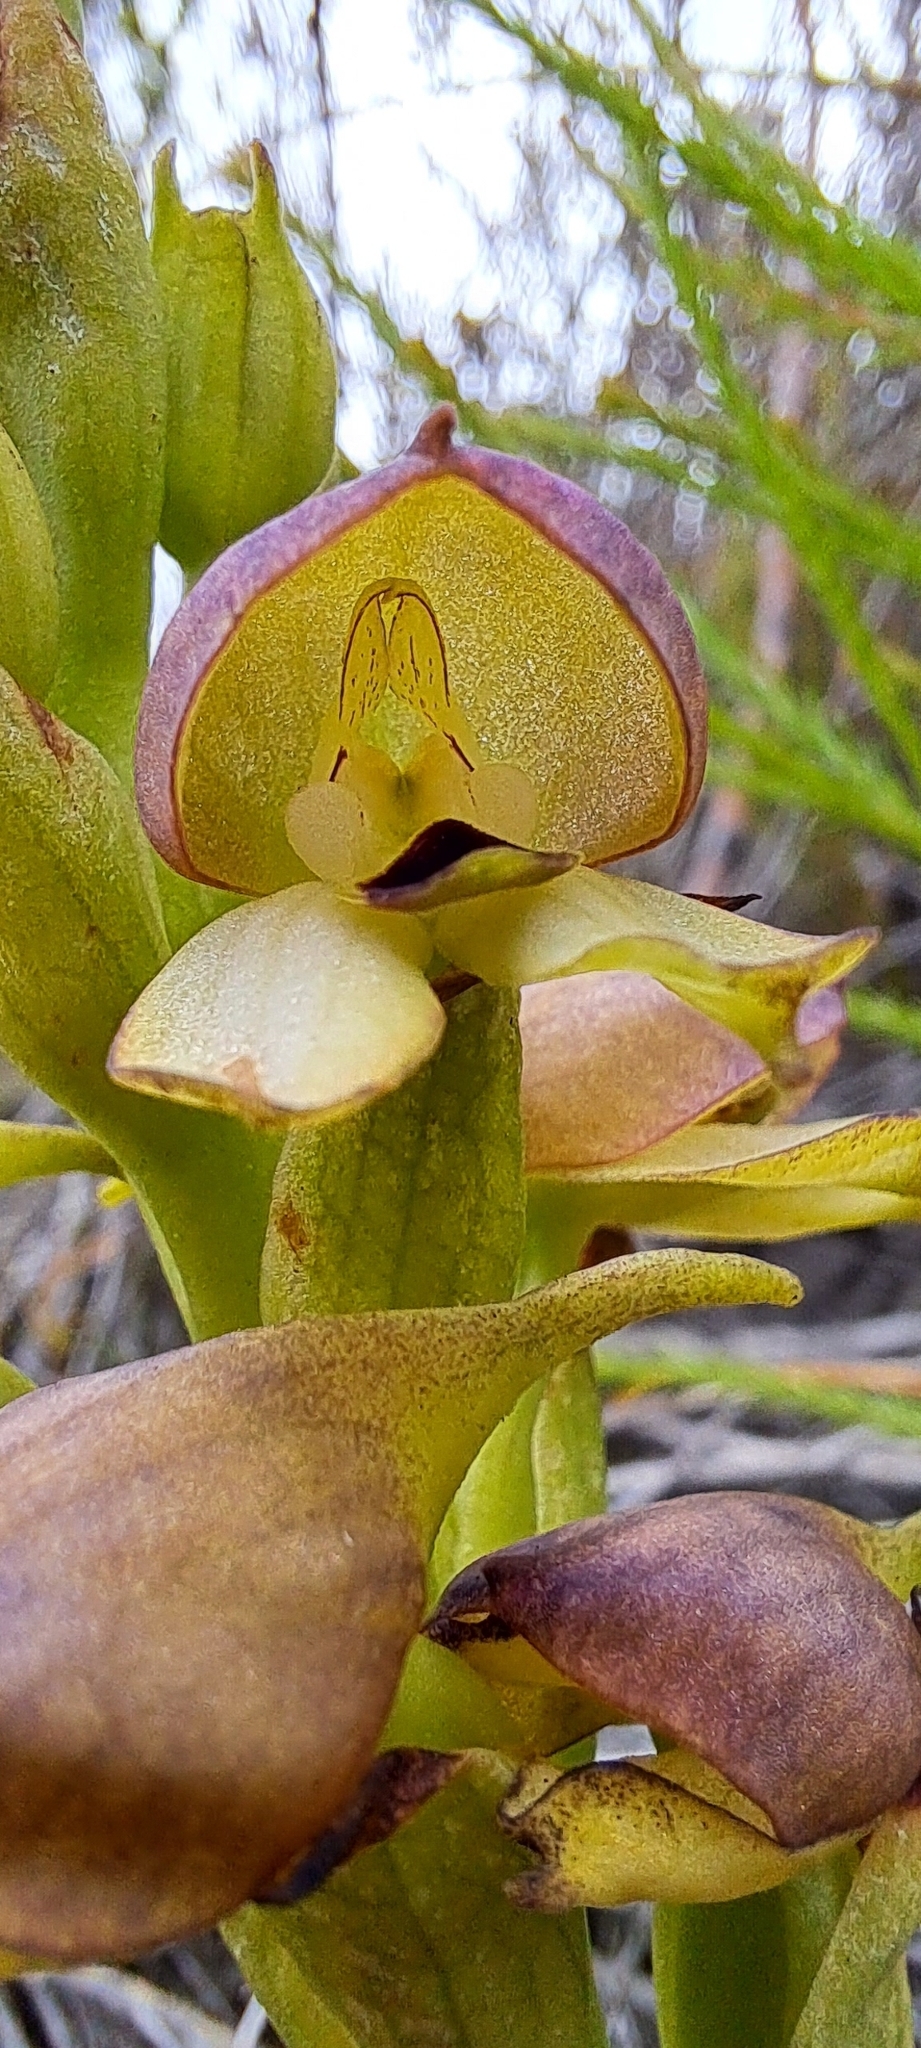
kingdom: Plantae
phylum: Tracheophyta
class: Liliopsida
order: Asparagales
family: Orchidaceae
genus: Disa
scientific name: Disa cornuta
